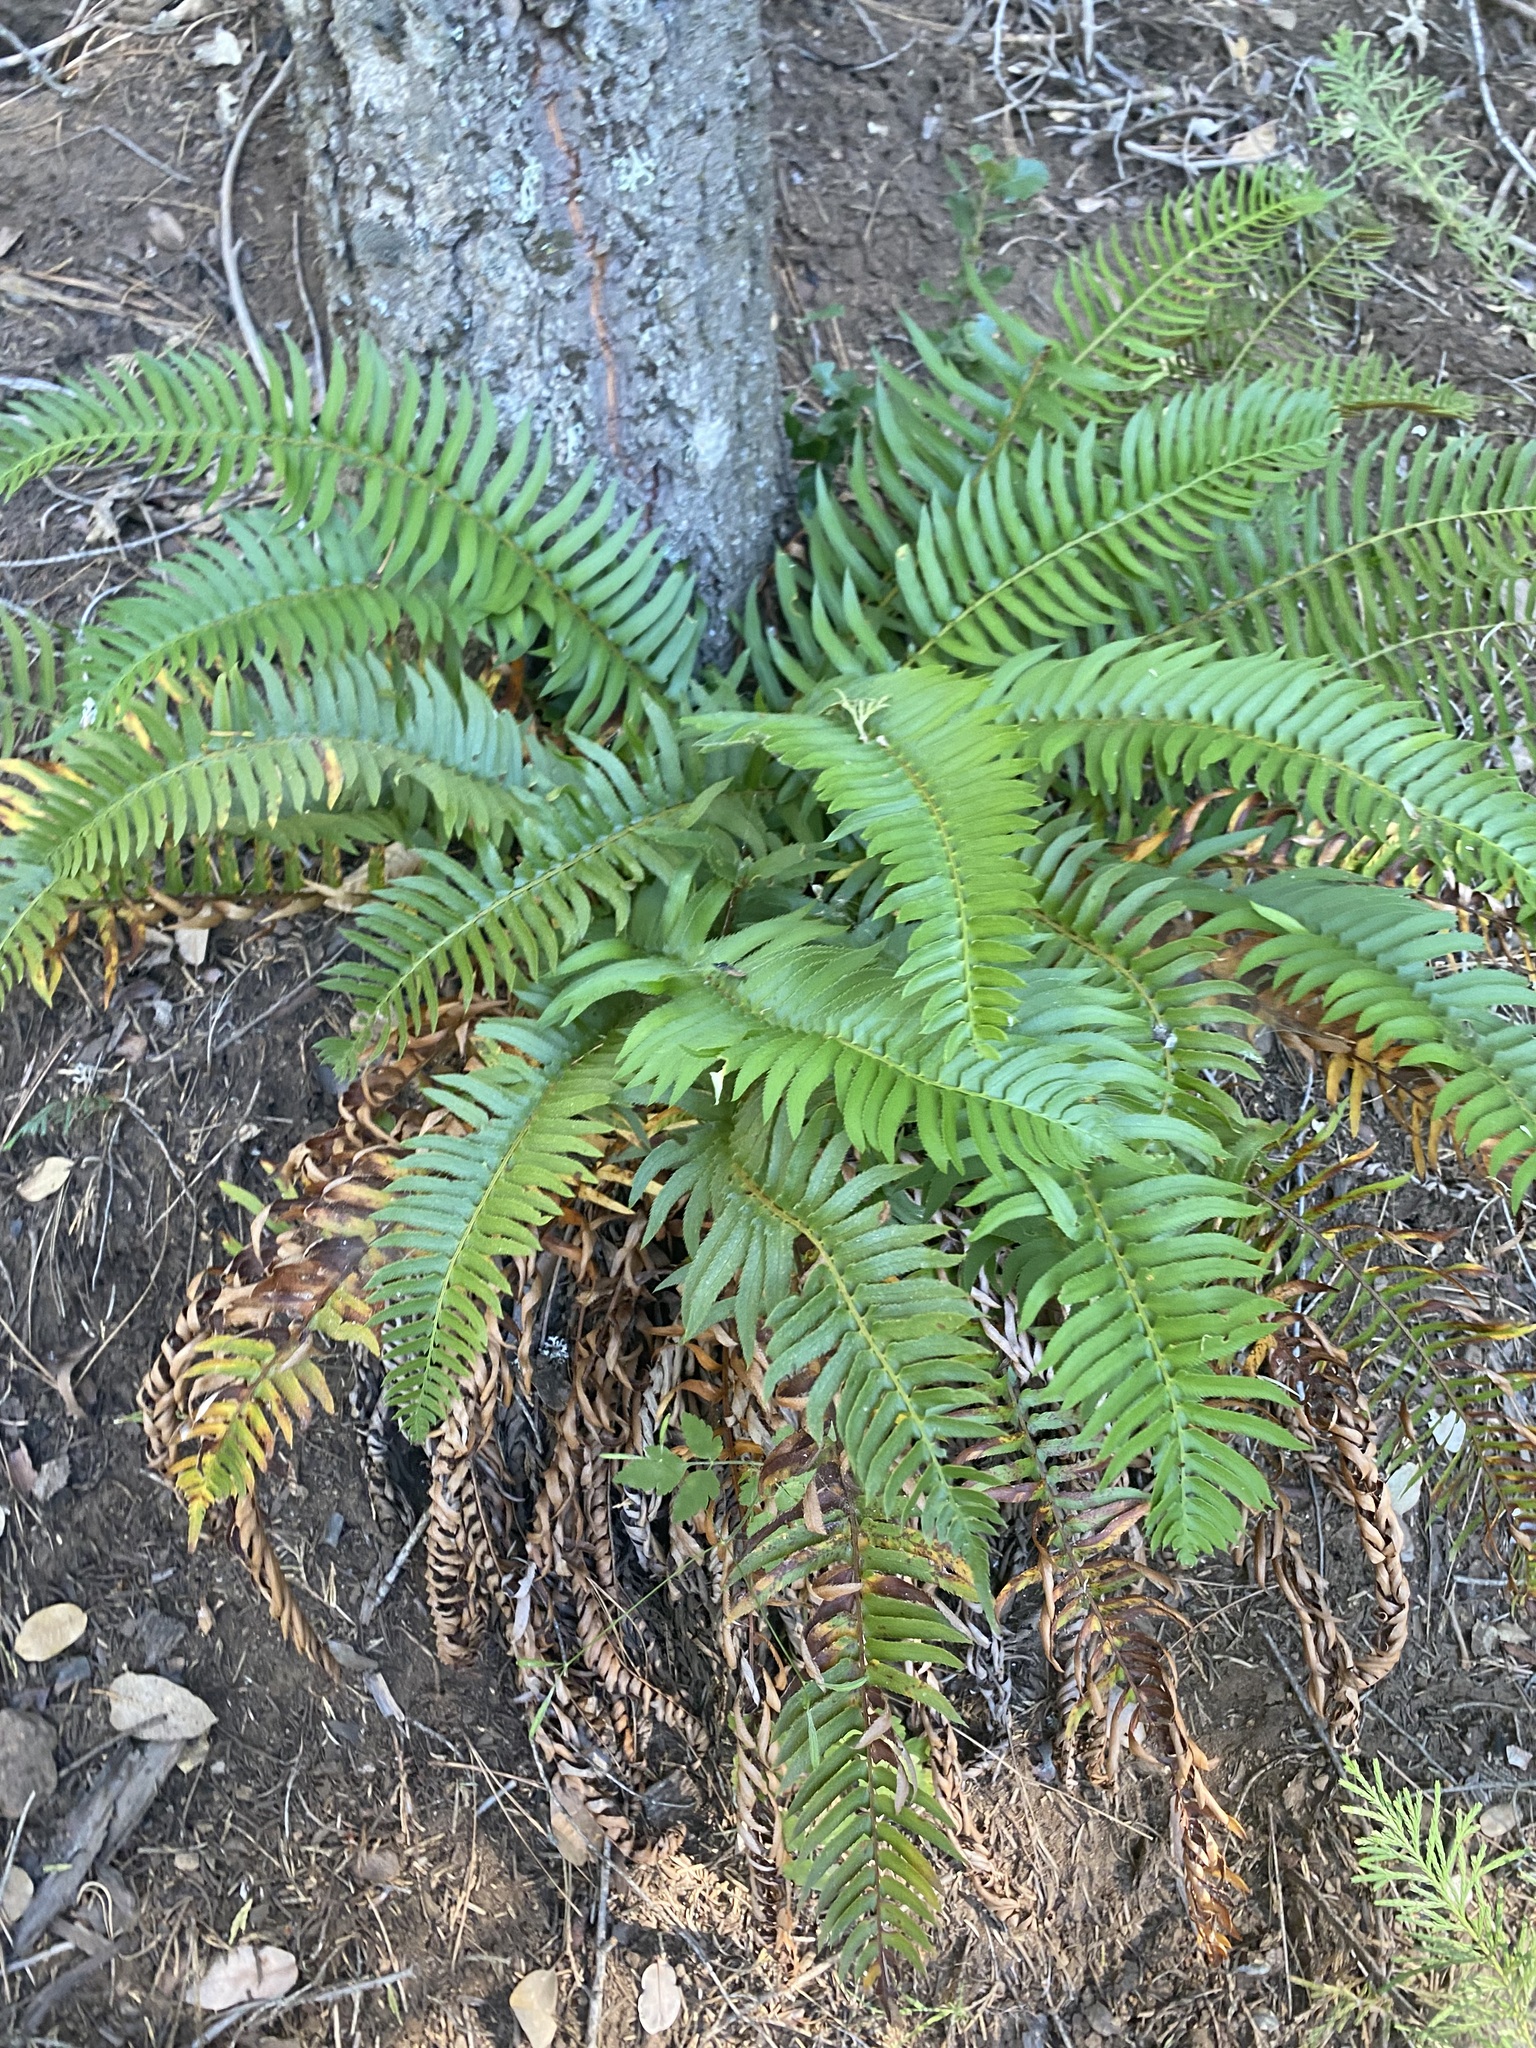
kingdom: Plantae
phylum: Tracheophyta
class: Polypodiopsida
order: Polypodiales
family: Dryopteridaceae
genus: Polystichum
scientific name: Polystichum imbricans
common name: Dwarf western sword fern
